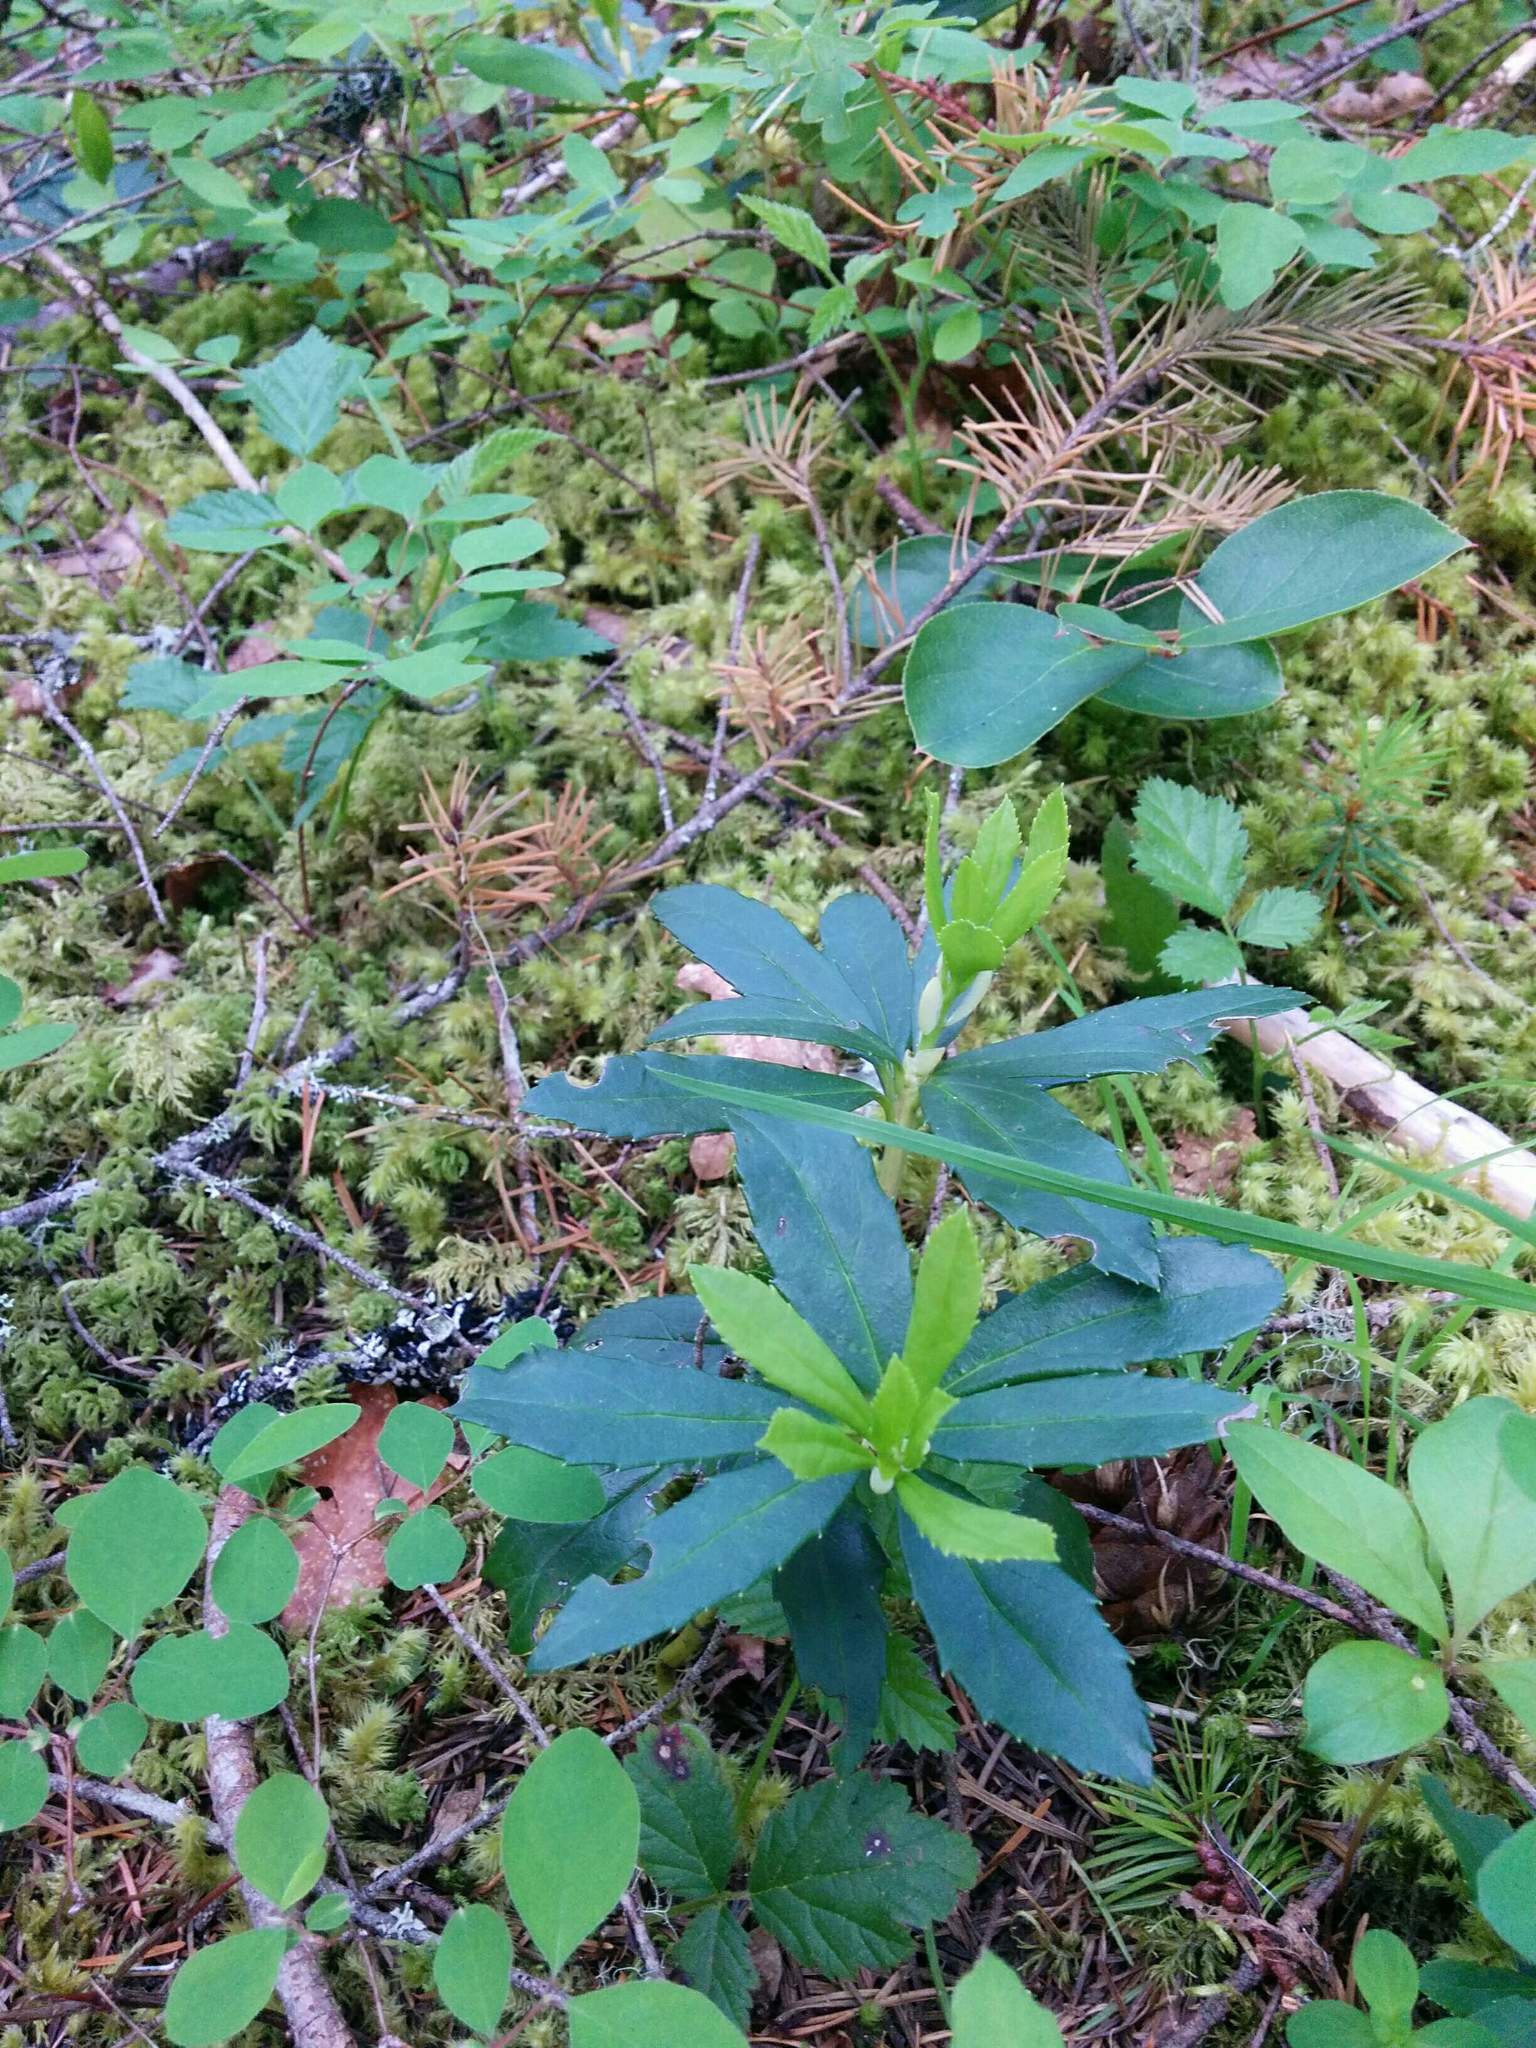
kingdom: Plantae
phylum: Tracheophyta
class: Magnoliopsida
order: Ericales
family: Ericaceae
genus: Chimaphila
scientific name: Chimaphila menziesii
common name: Menzies' pipsissewa
